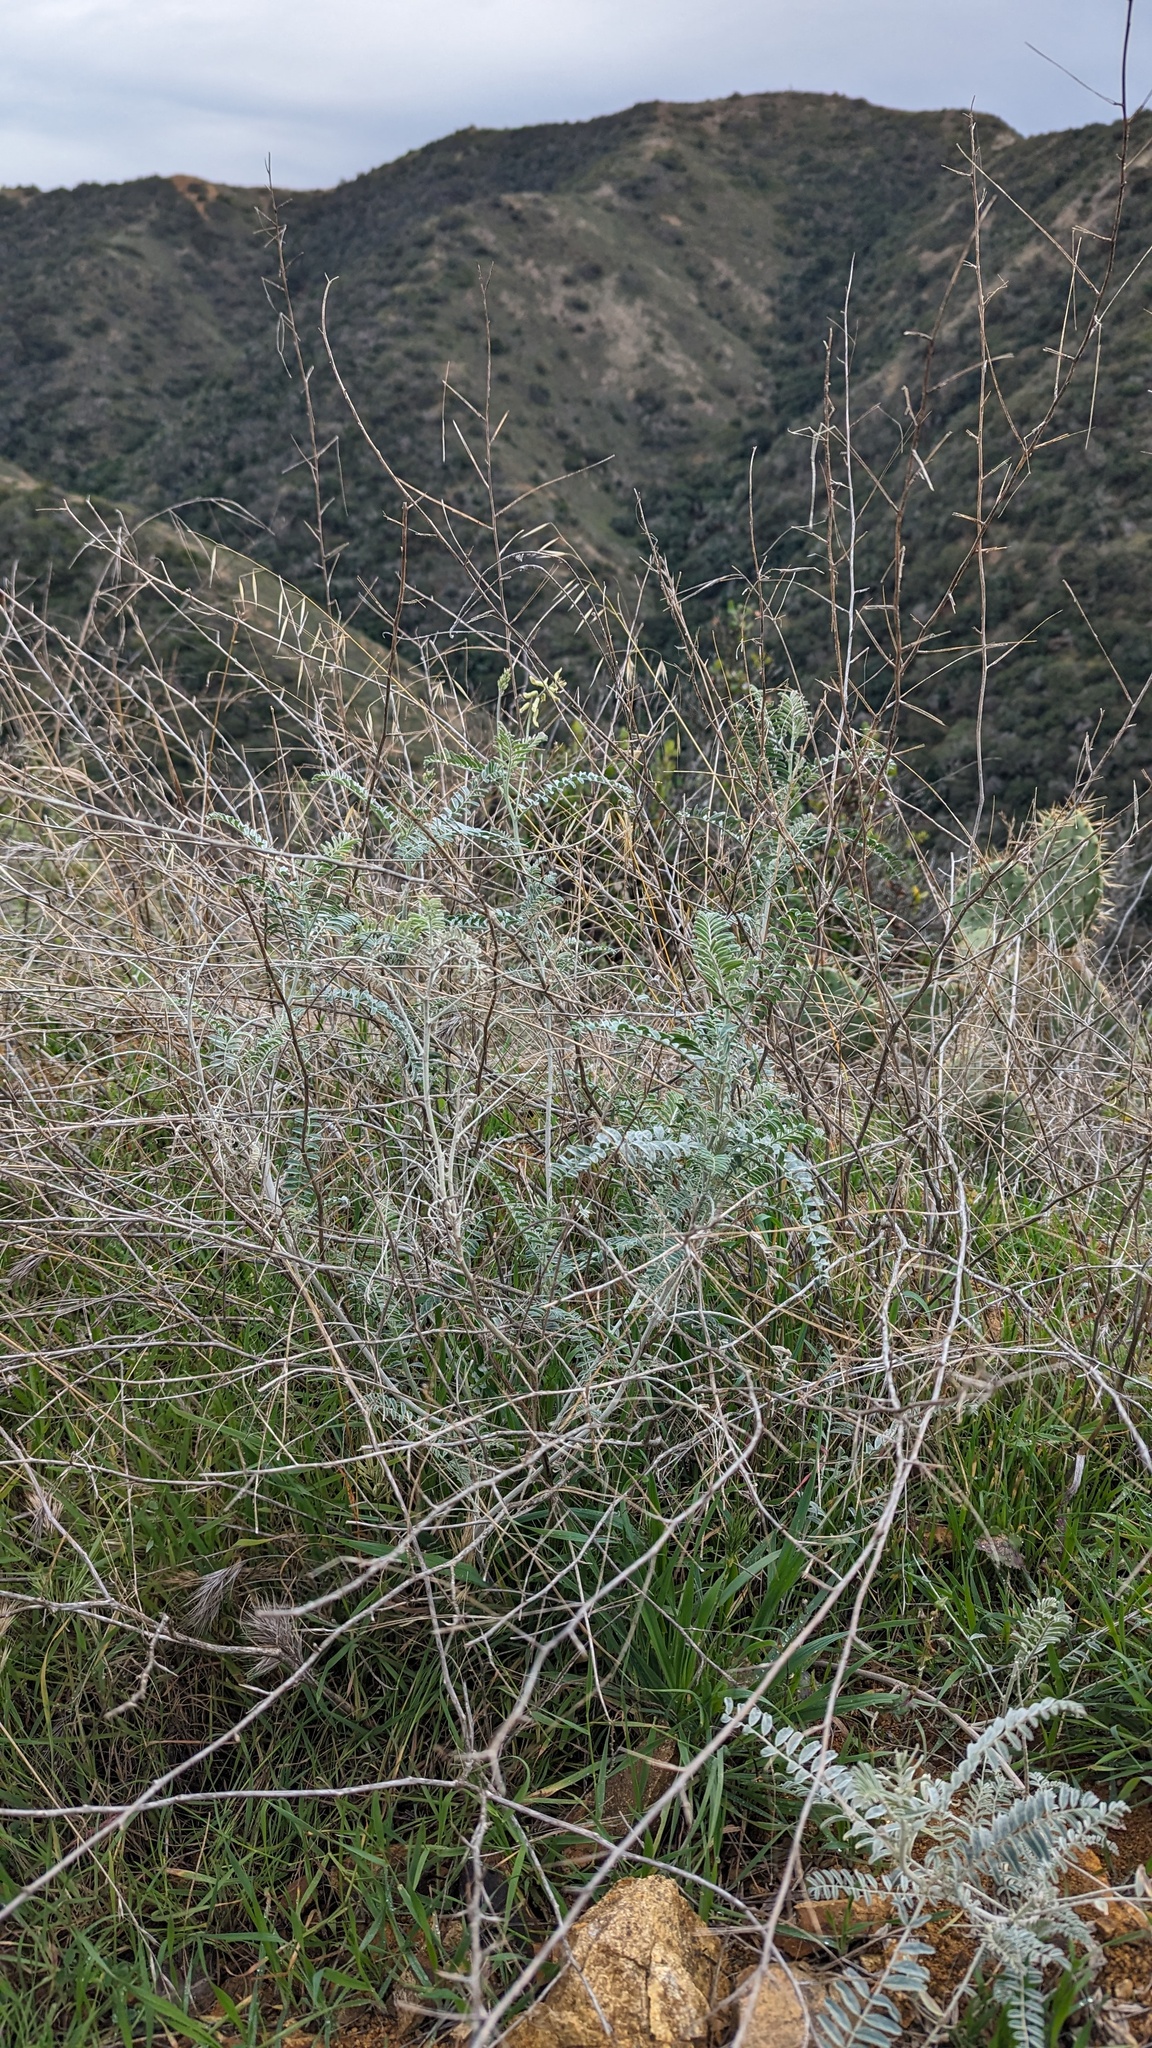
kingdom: Plantae
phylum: Tracheophyta
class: Magnoliopsida
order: Fabales
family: Fabaceae
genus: Astragalus
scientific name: Astragalus trichopodus
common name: Santa barbara milk-vetch
